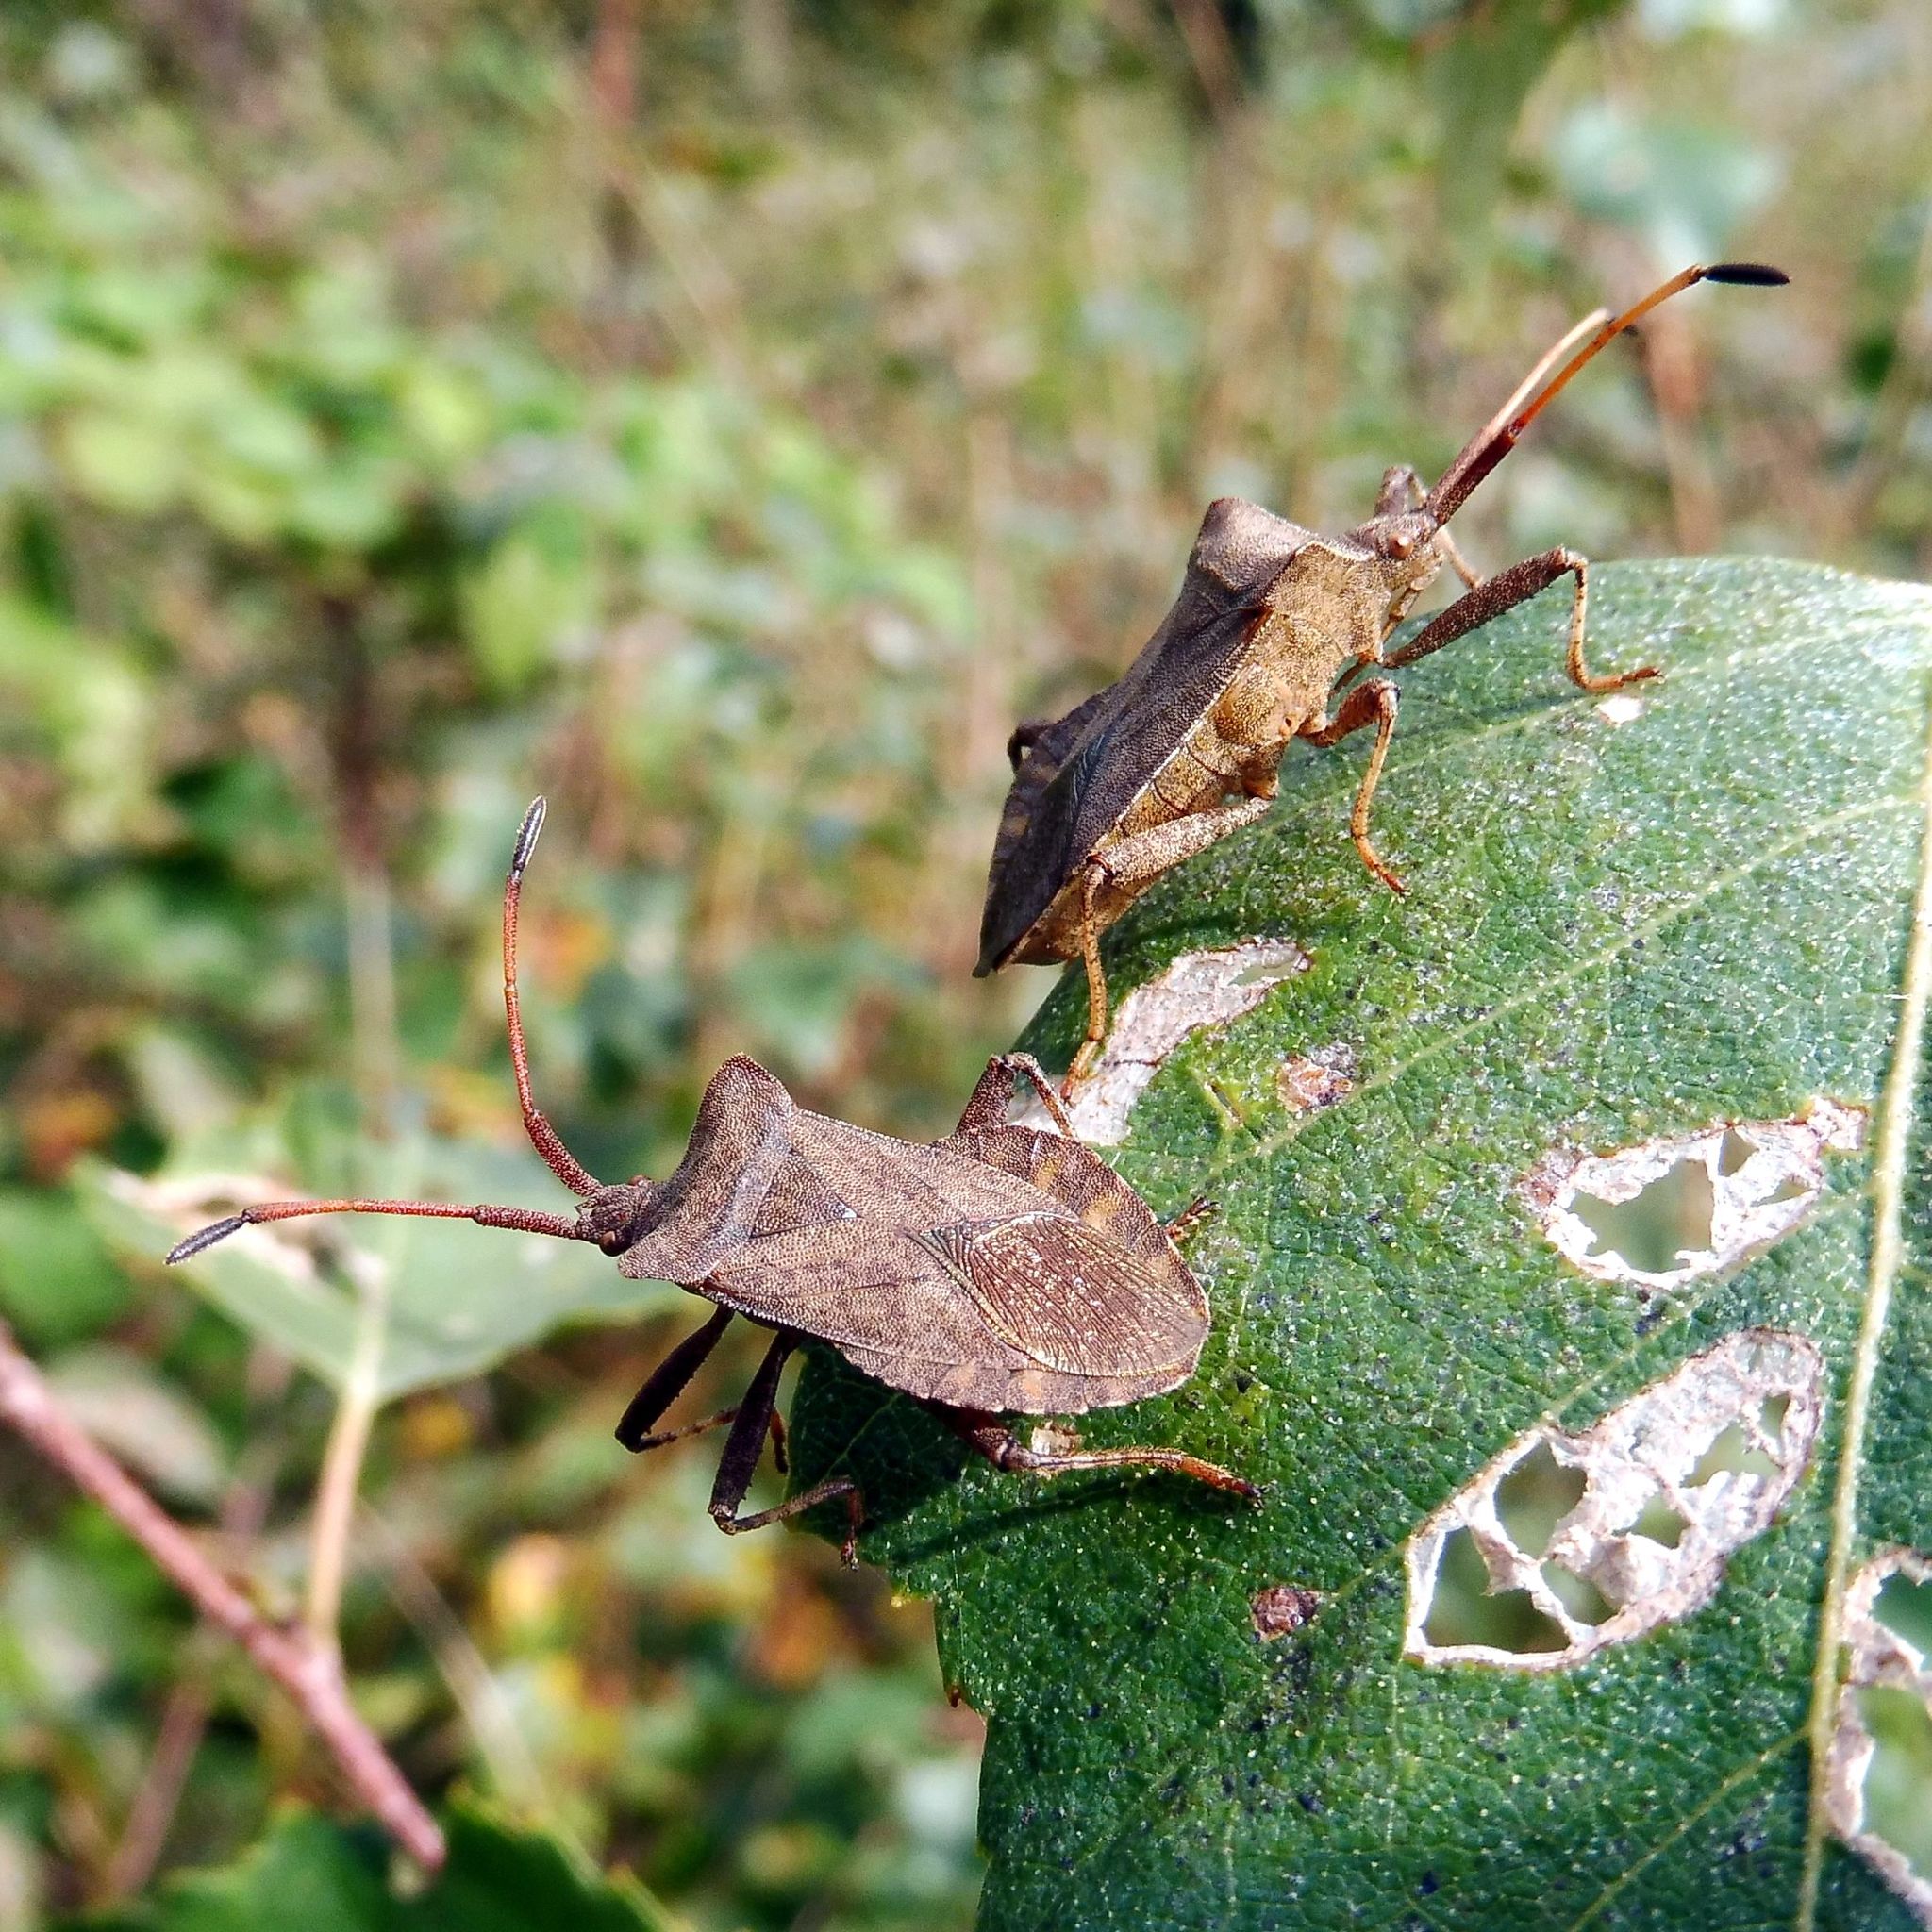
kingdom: Animalia
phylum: Arthropoda
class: Insecta
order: Hemiptera
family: Coreidae
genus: Coreus
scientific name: Coreus marginatus
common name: Dock bug
